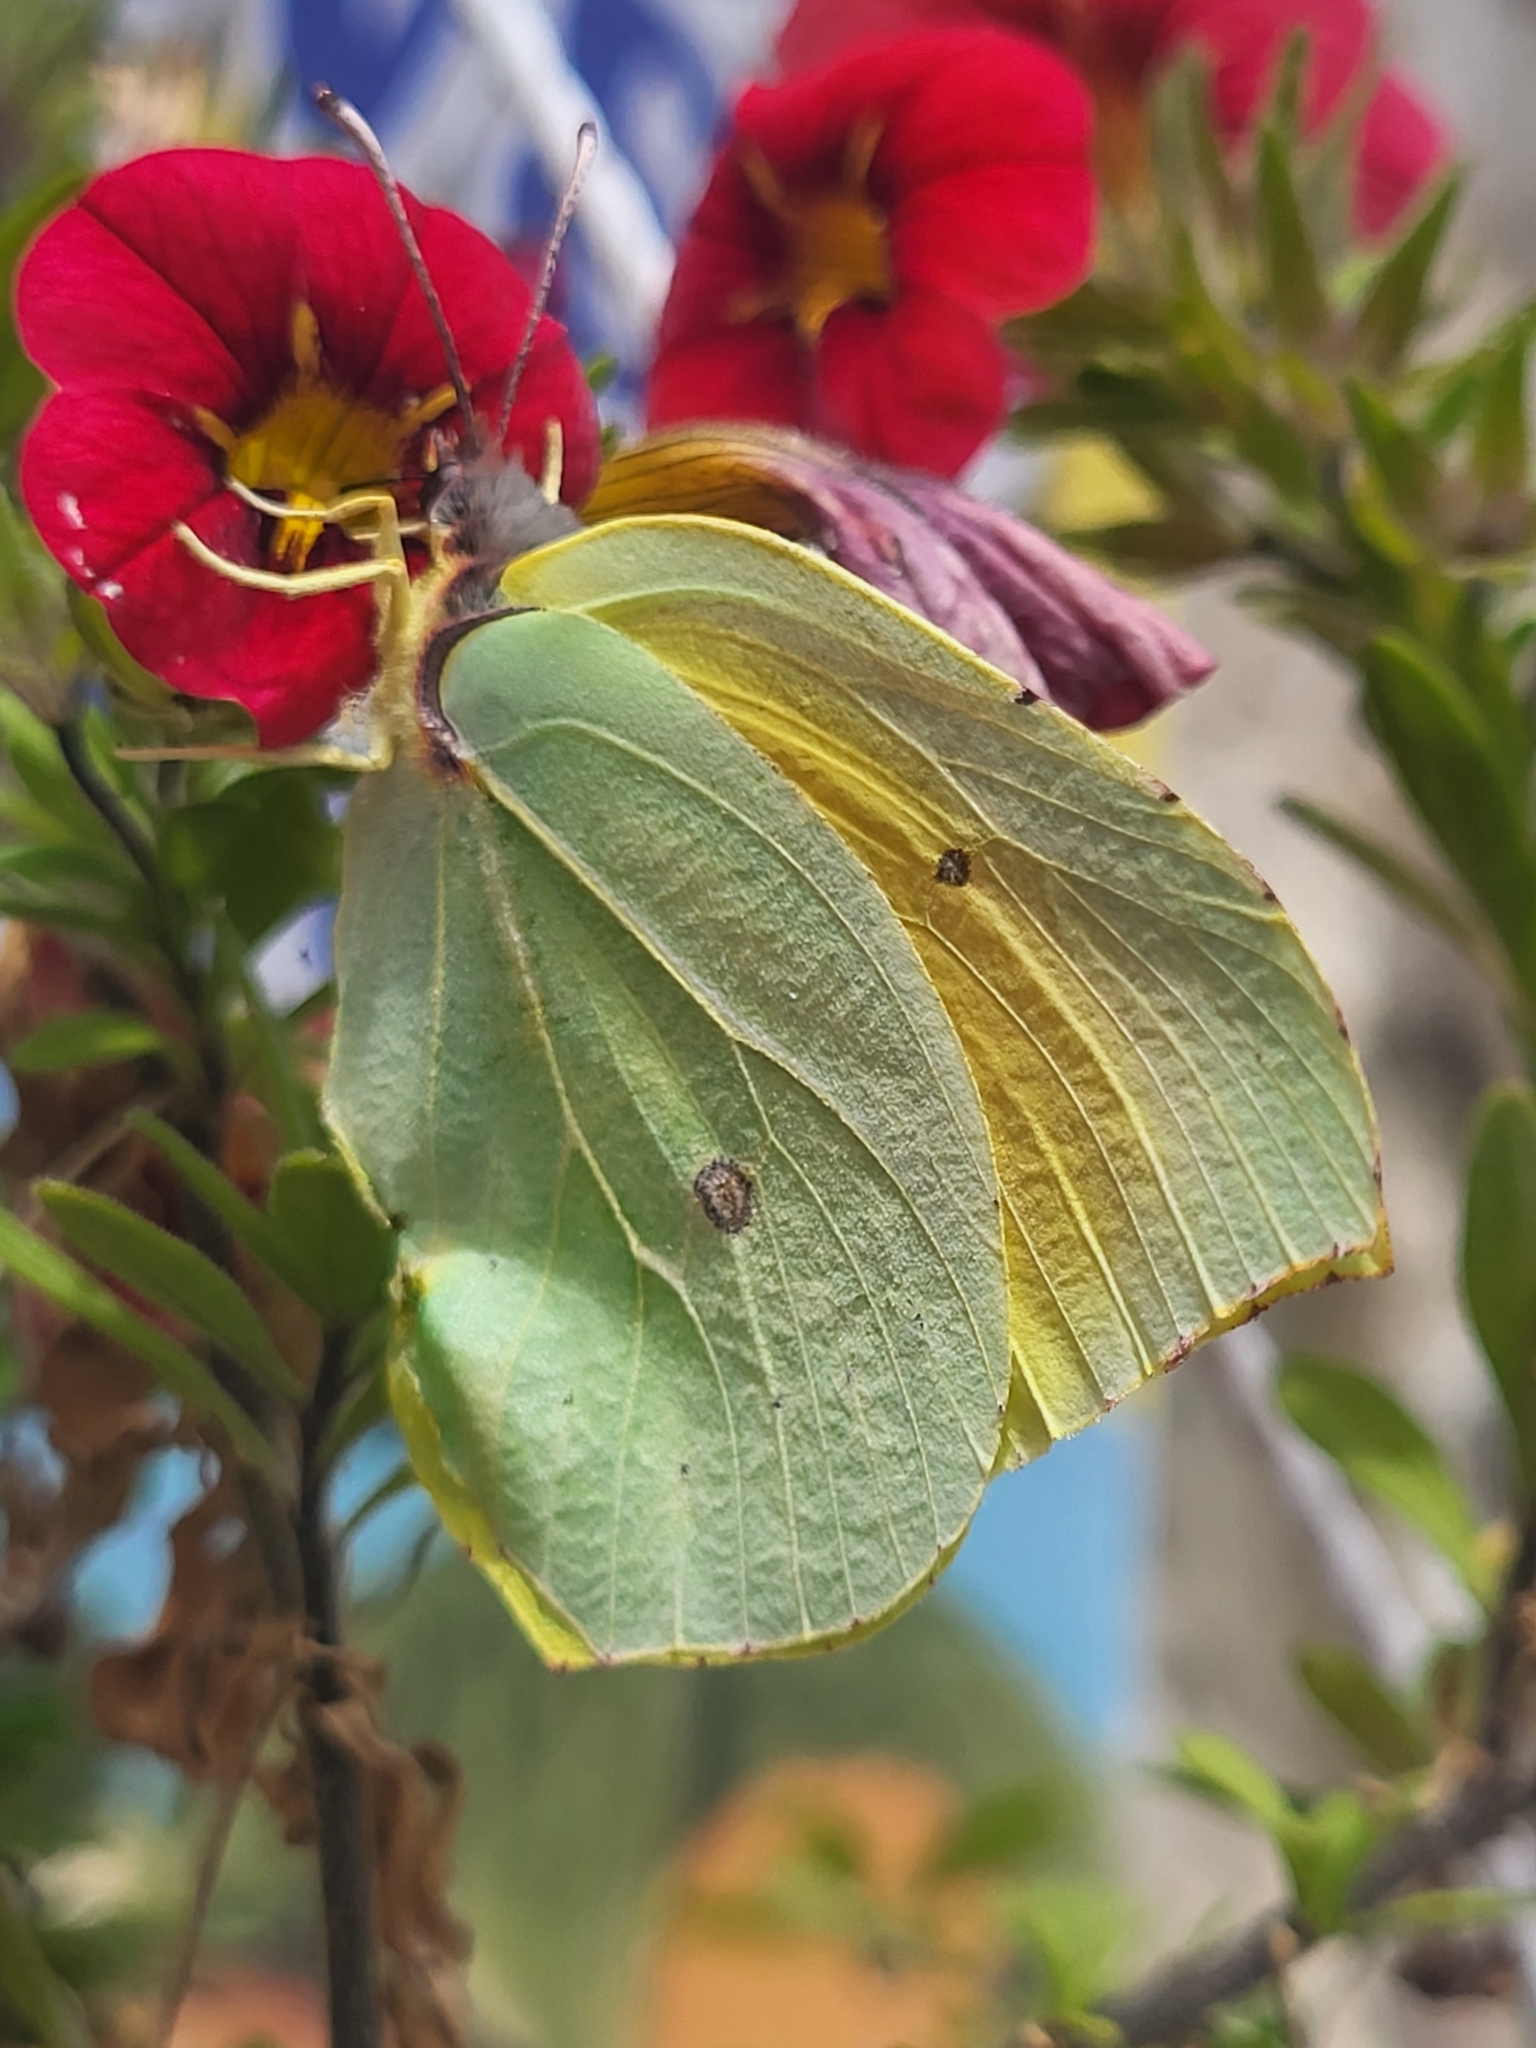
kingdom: Animalia
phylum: Arthropoda
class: Insecta
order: Lepidoptera
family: Pieridae
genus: Gonepteryx
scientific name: Gonepteryx cleopatra
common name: Cleopatra
